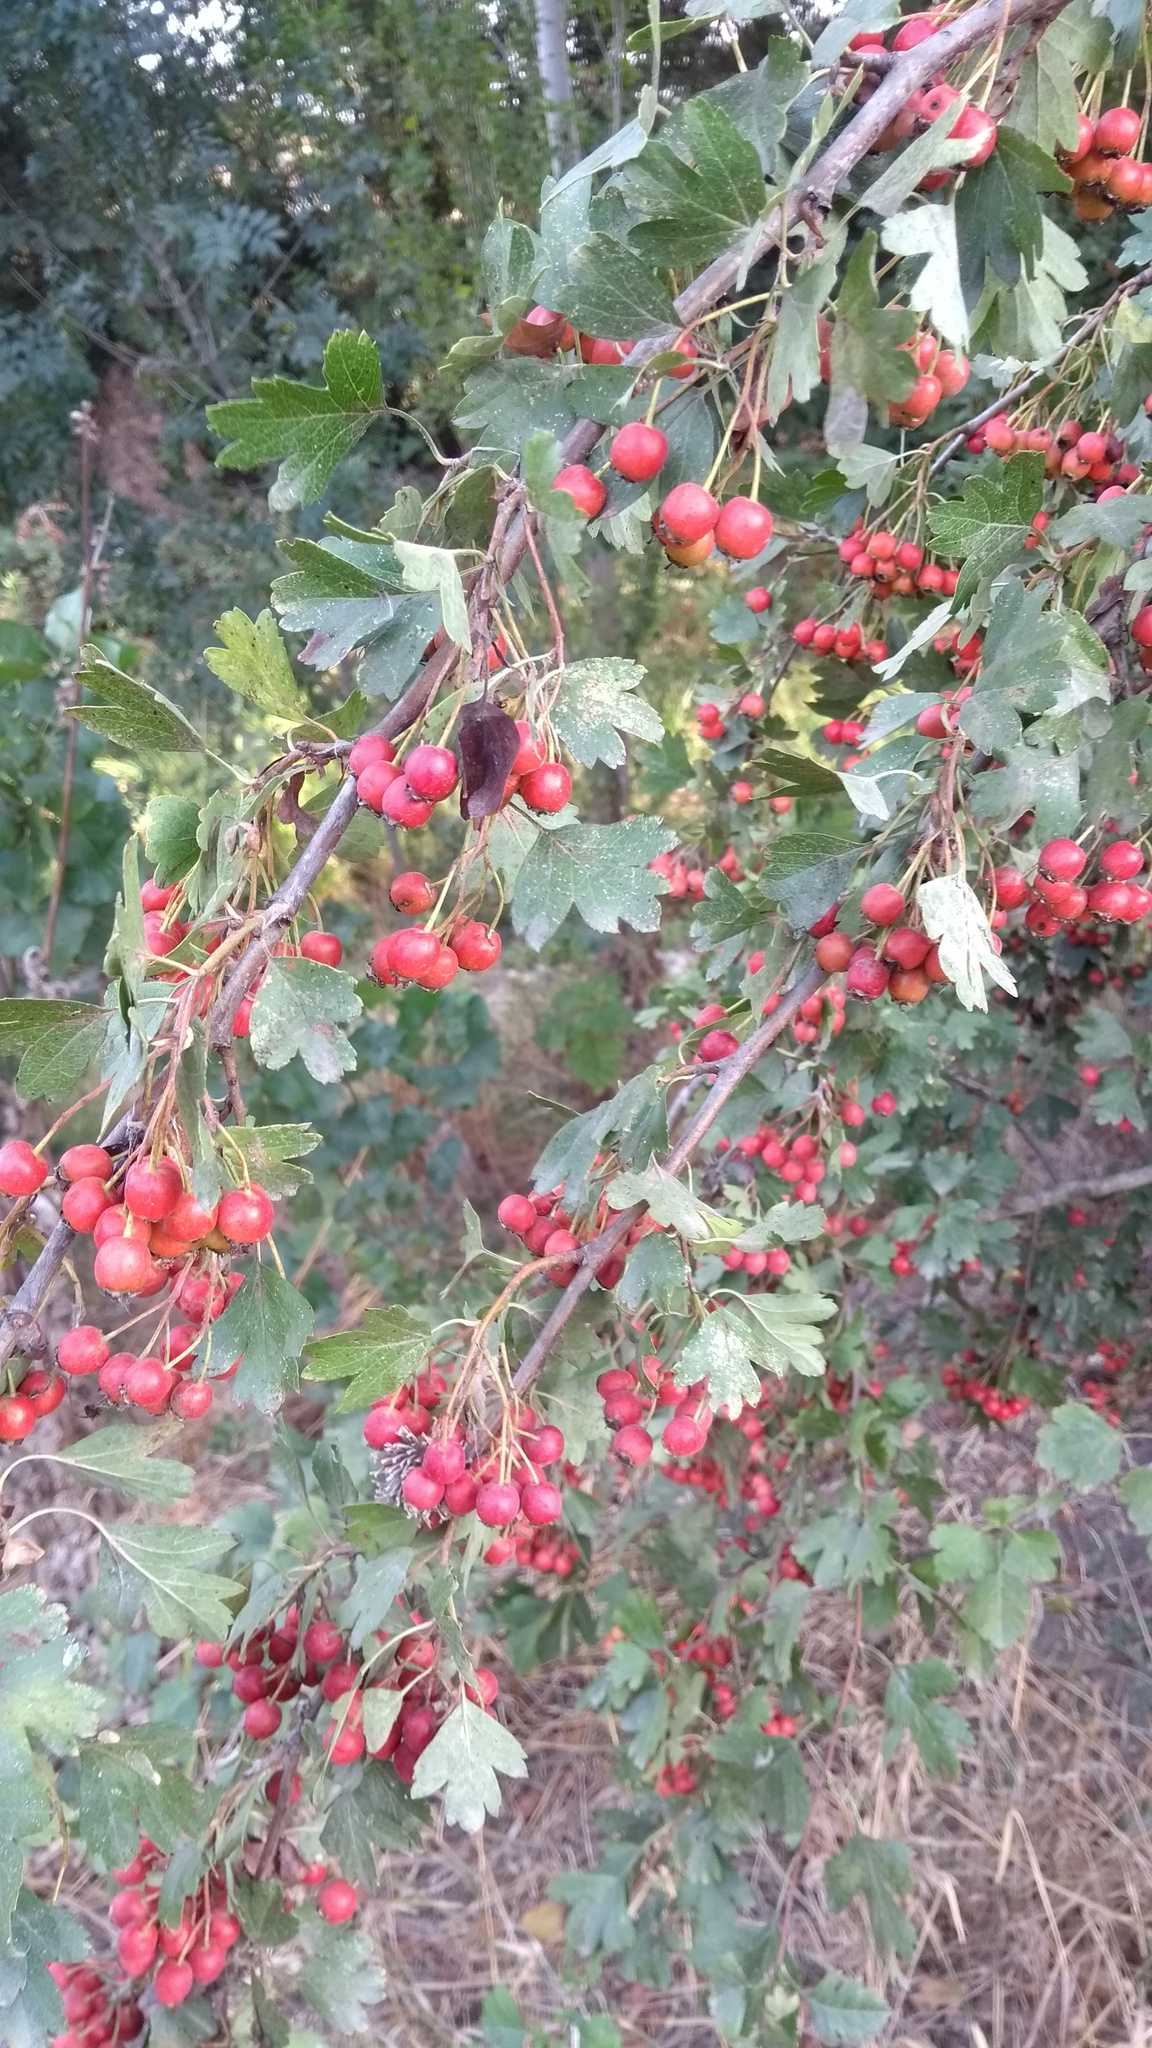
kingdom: Plantae
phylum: Tracheophyta
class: Magnoliopsida
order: Rosales
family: Rosaceae
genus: Crataegus
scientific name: Crataegus monogyna
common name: Hawthorn
